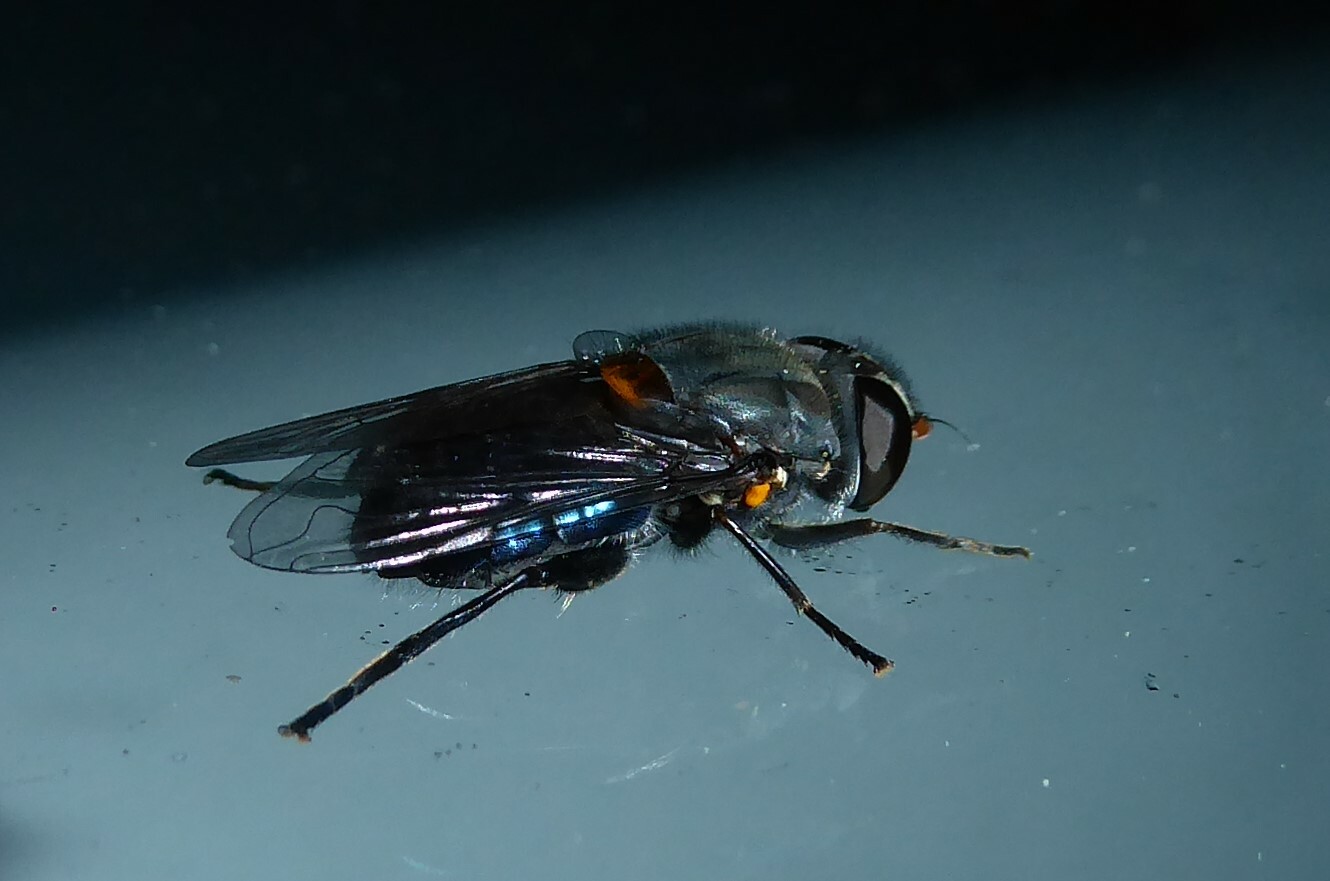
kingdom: Animalia
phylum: Arthropoda
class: Insecta
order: Diptera
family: Syrphidae
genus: Helophilus
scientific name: Helophilus hochstetteri
